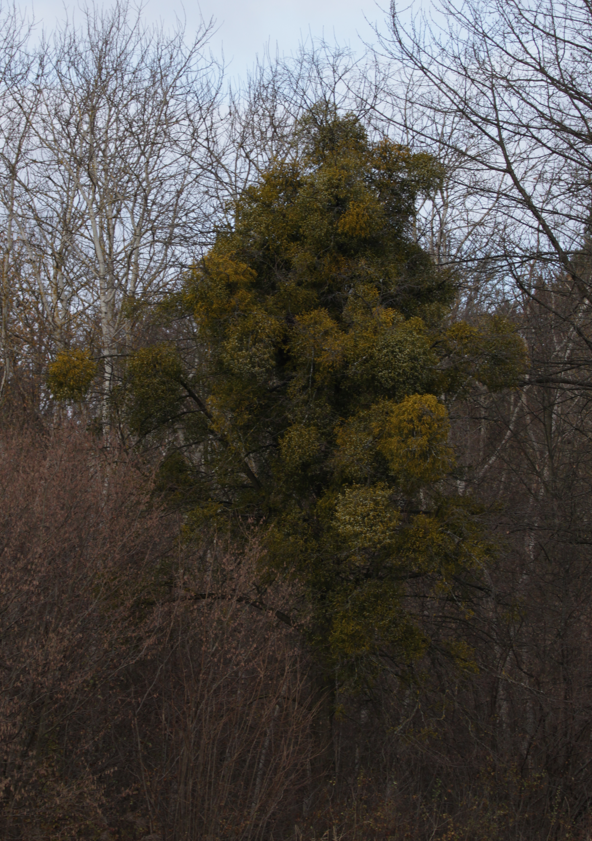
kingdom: Plantae
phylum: Tracheophyta
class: Magnoliopsida
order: Santalales
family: Viscaceae
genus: Viscum
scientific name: Viscum album
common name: Mistletoe
